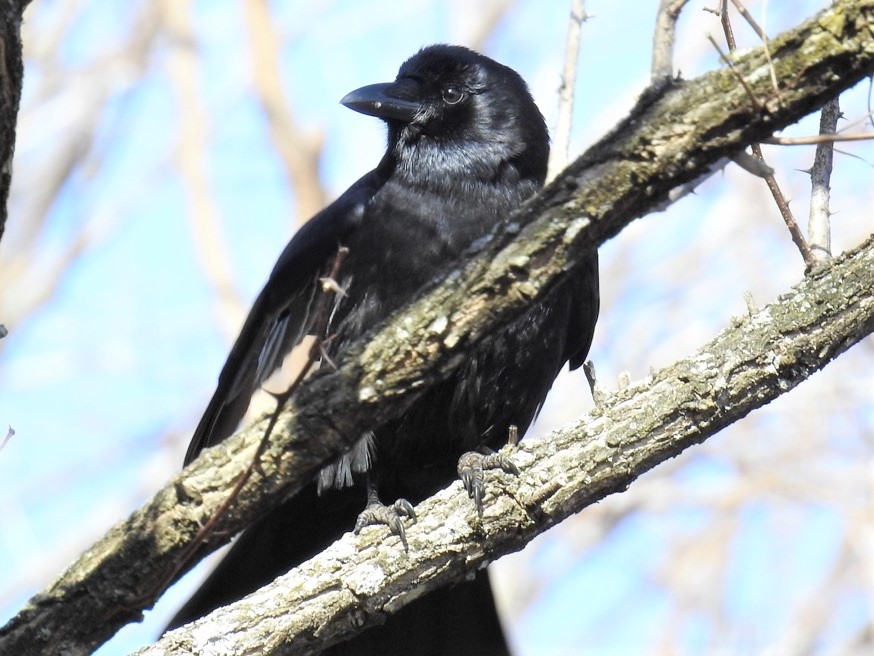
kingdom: Animalia
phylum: Chordata
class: Aves
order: Passeriformes
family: Corvidae
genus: Corvus
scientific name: Corvus brachyrhynchos
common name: American crow
